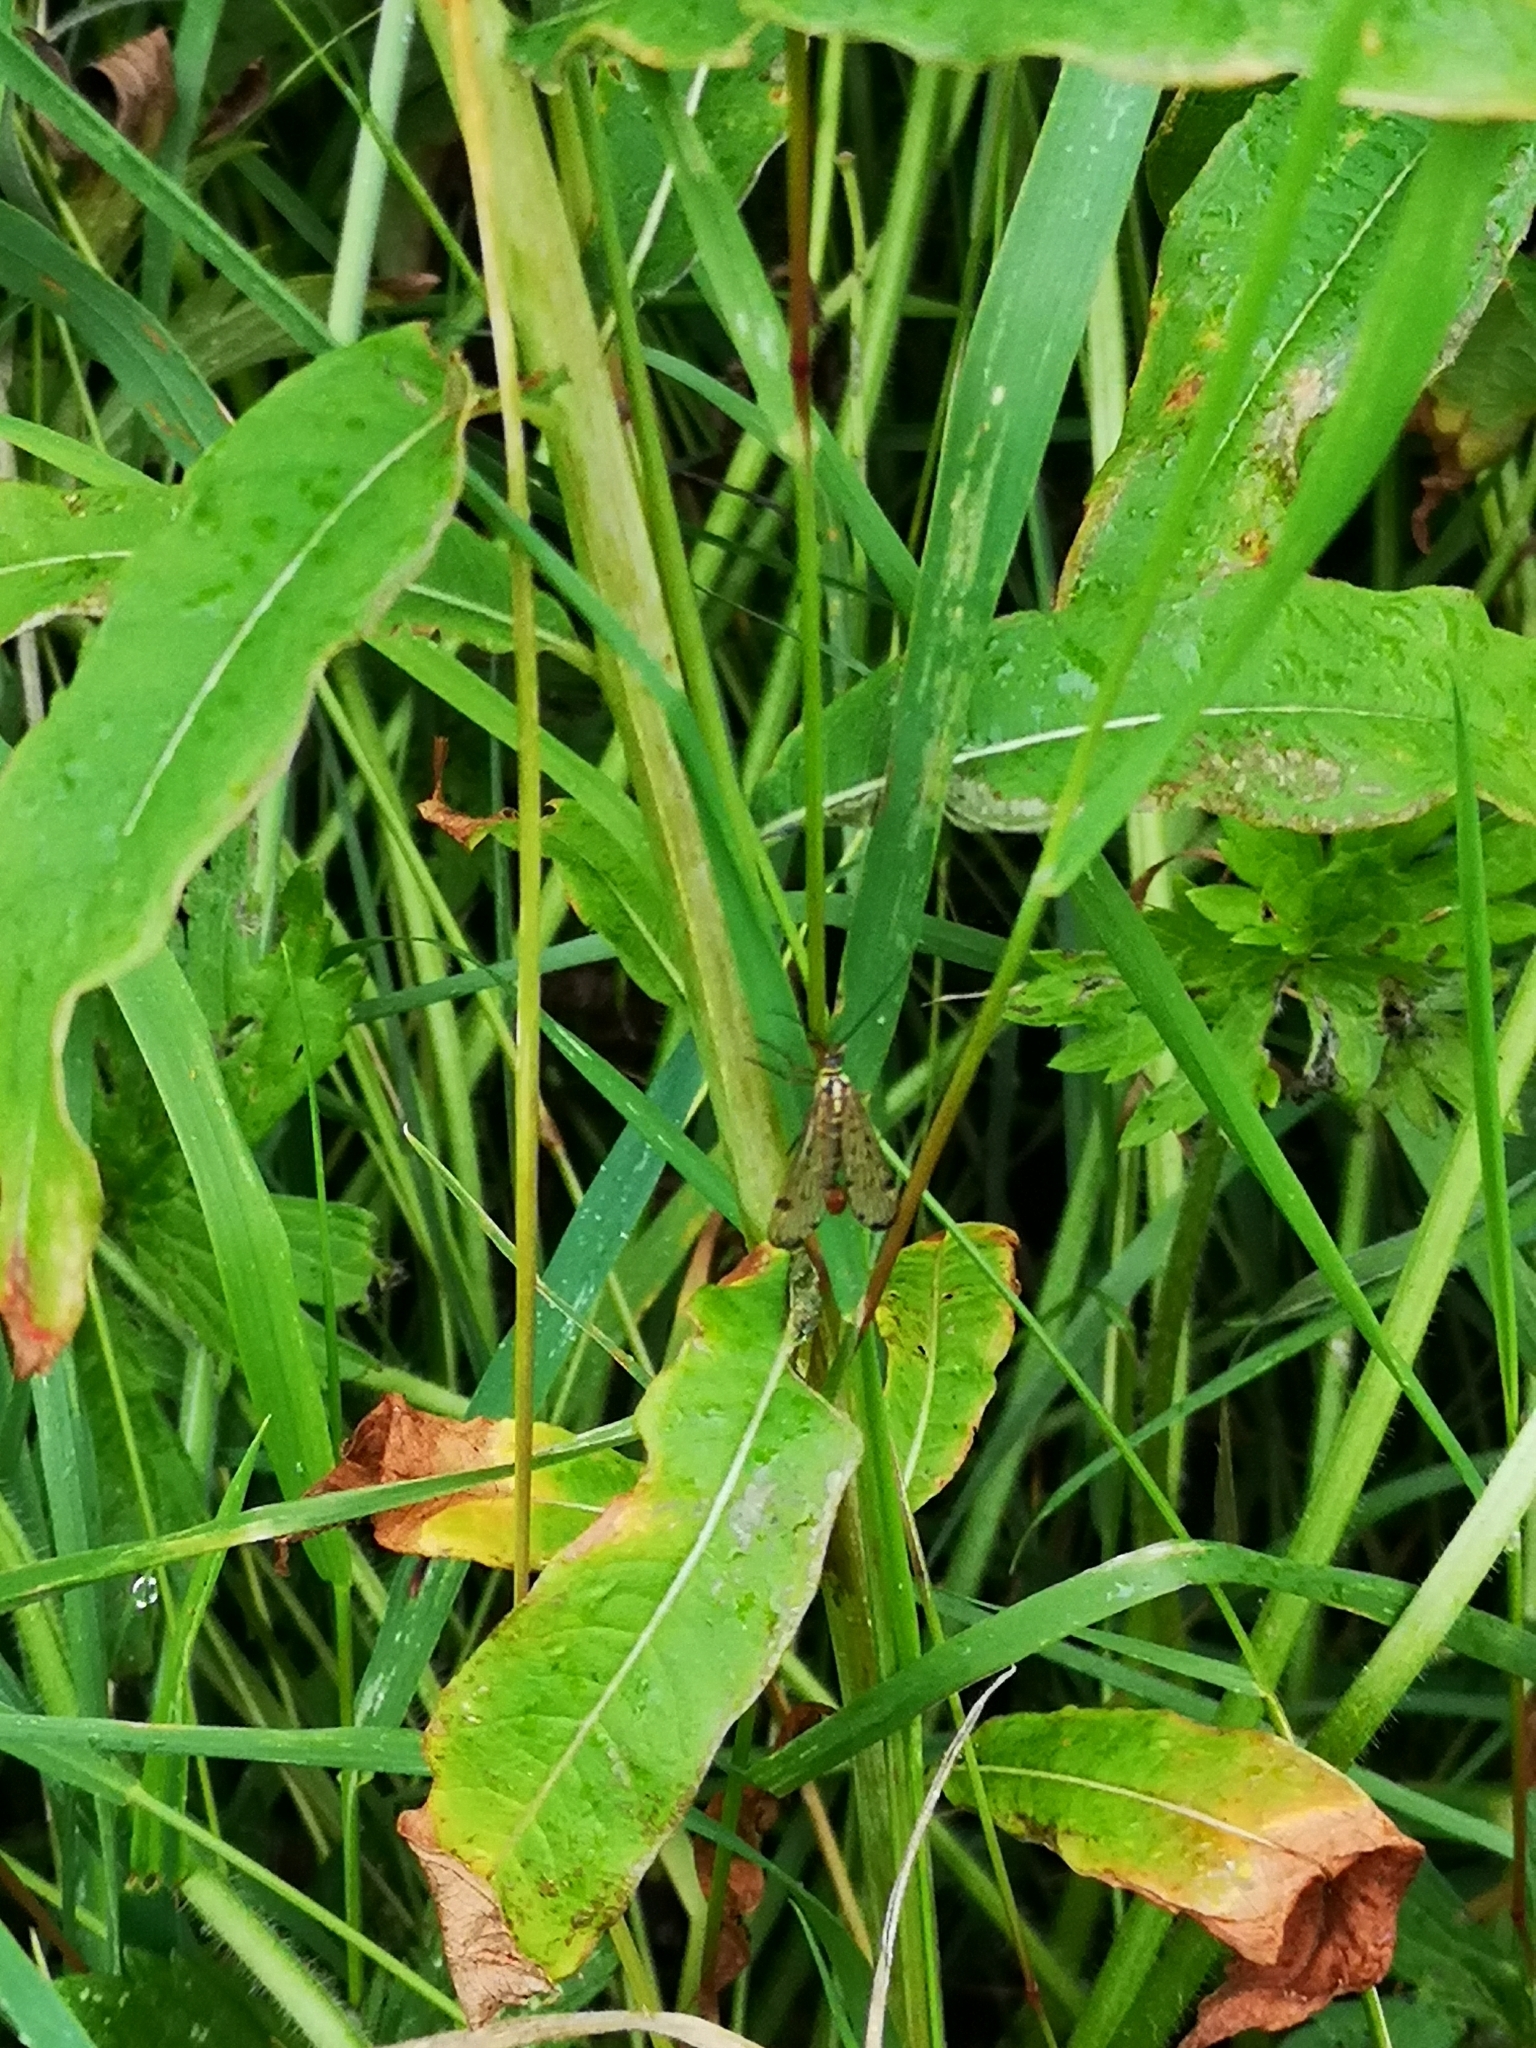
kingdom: Animalia
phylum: Arthropoda
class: Insecta
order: Mecoptera
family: Panorpidae
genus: Panorpa
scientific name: Panorpa germanica
